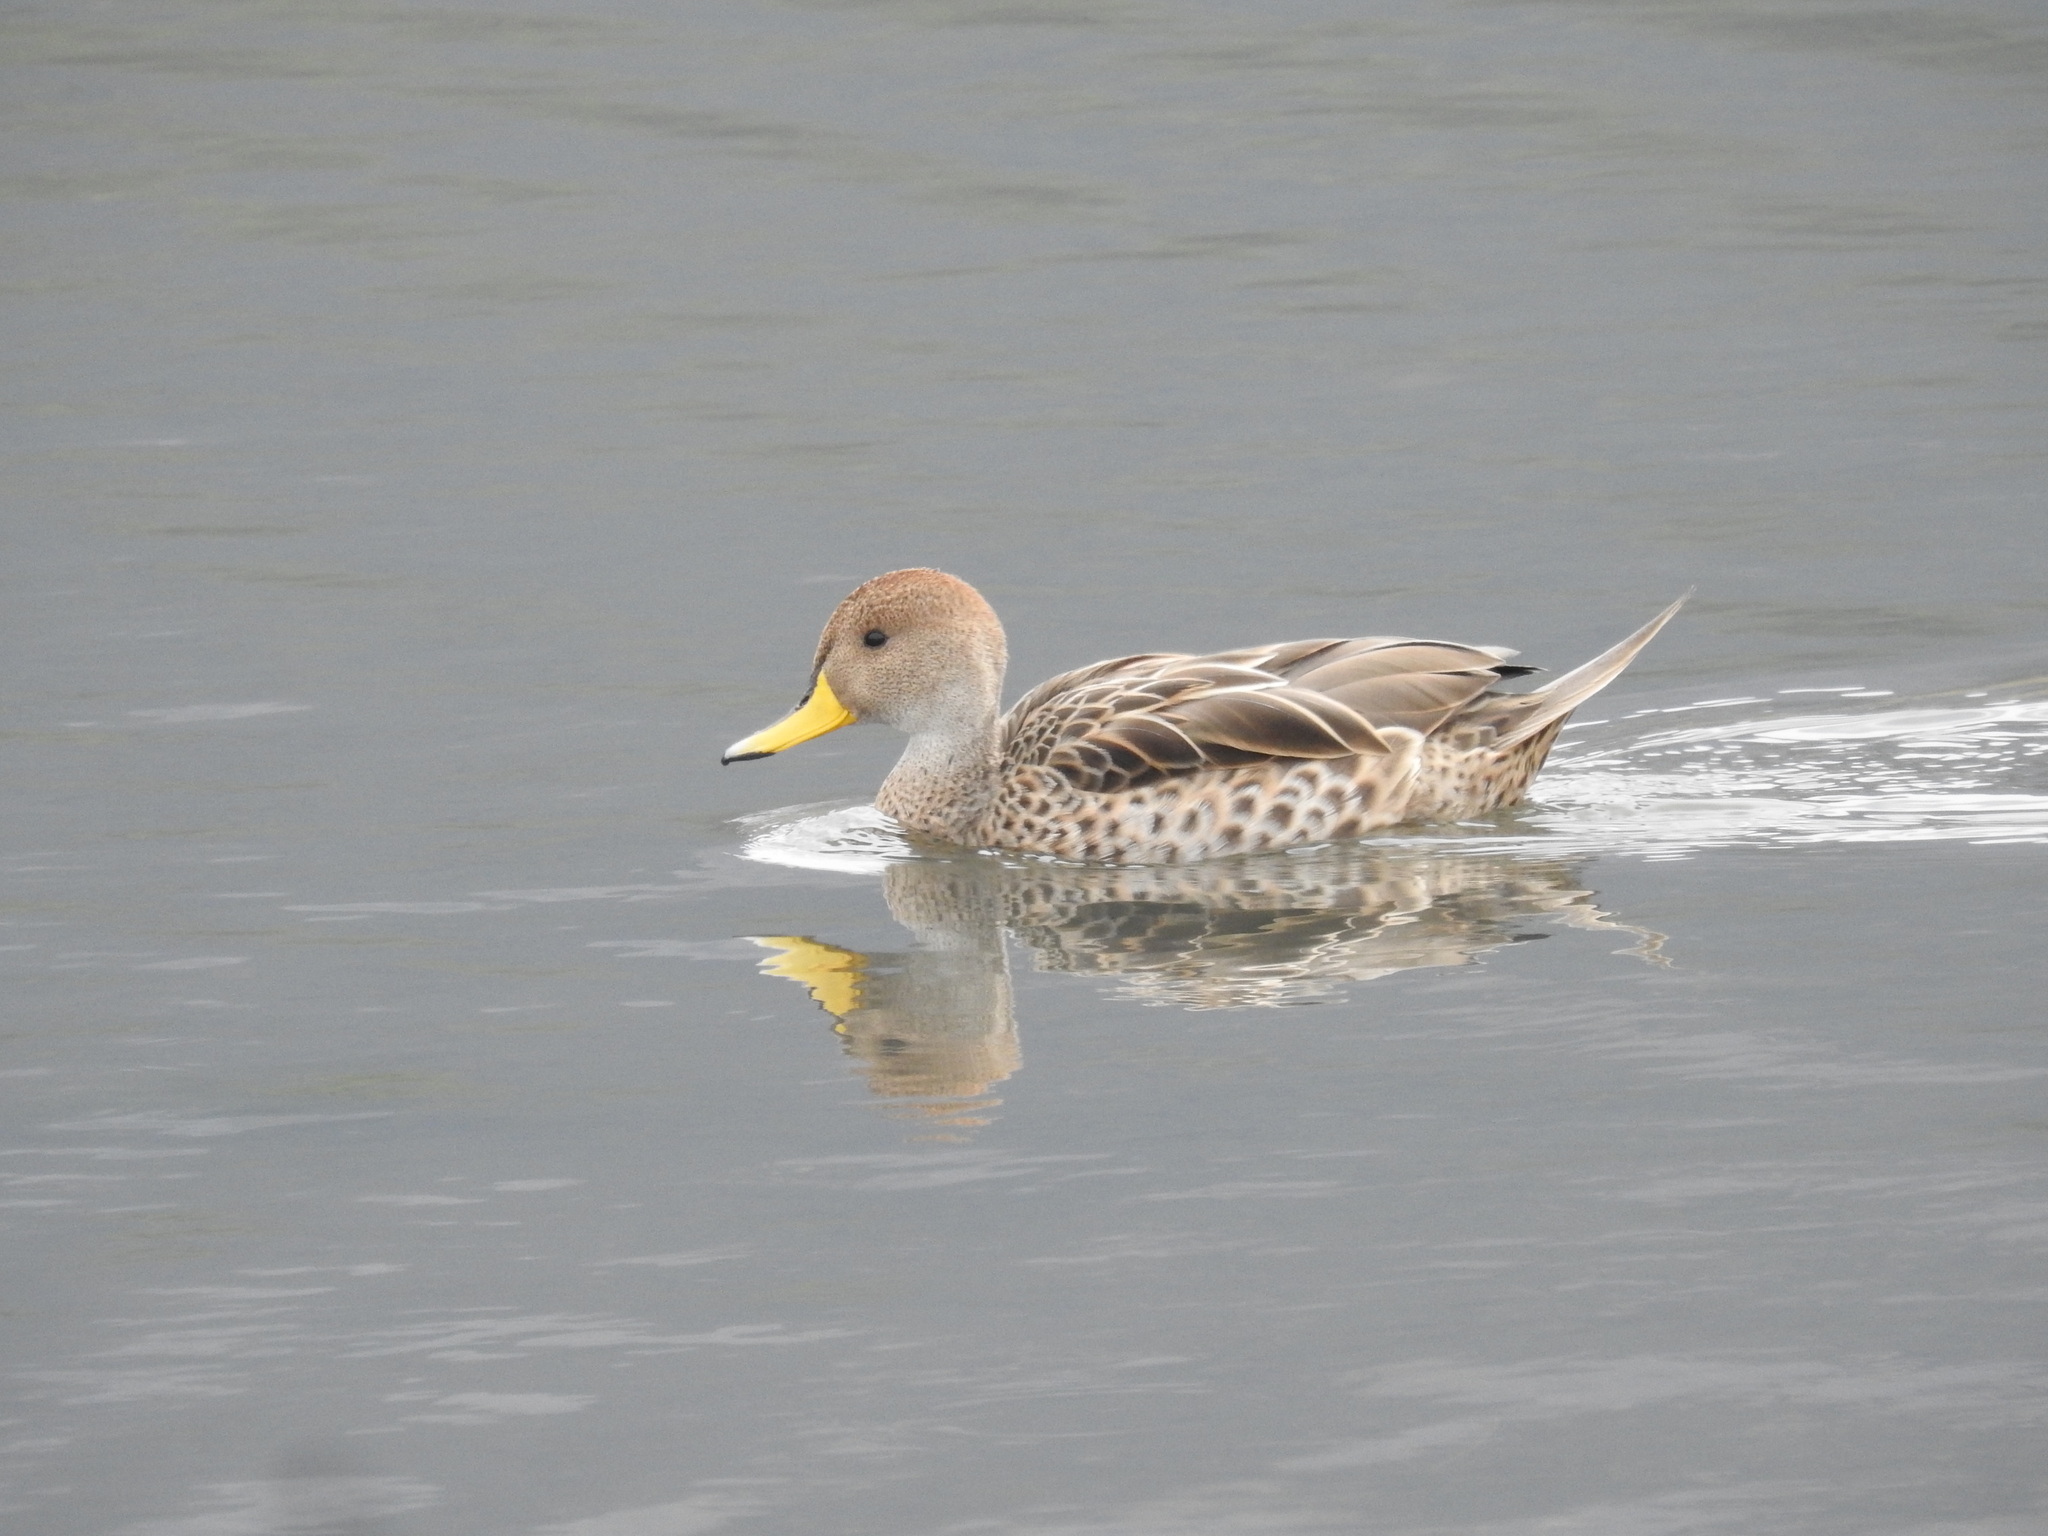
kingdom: Animalia
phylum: Chordata
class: Aves
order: Anseriformes
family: Anatidae
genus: Anas
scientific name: Anas georgica
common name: Yellow-billed pintail
